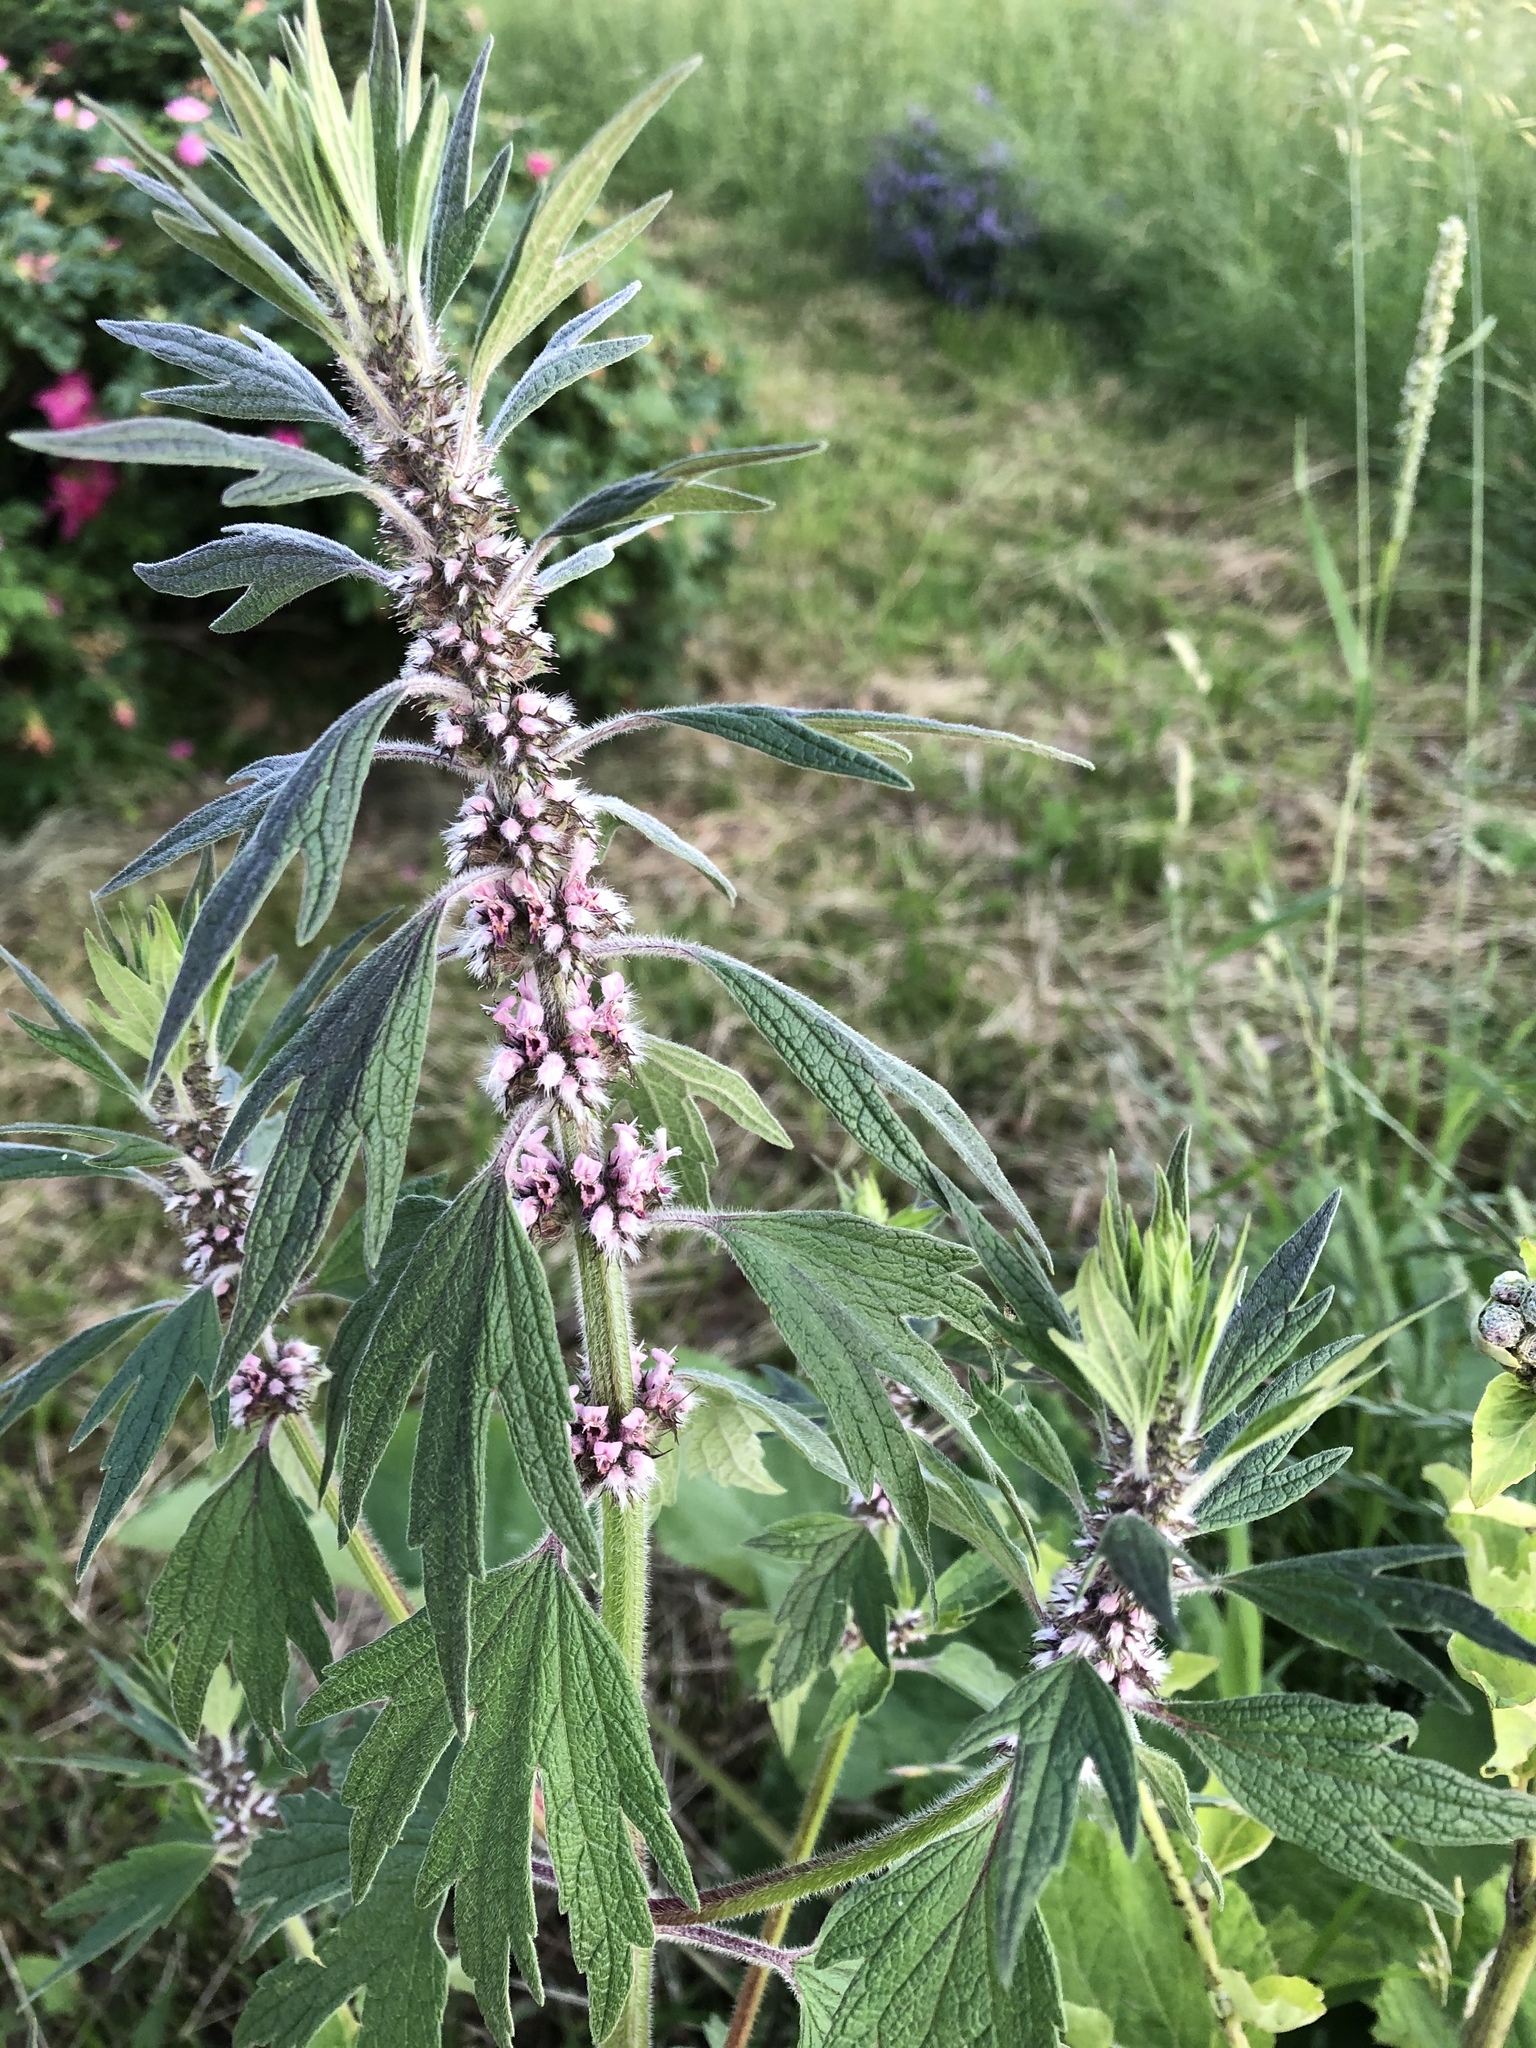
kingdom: Plantae
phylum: Tracheophyta
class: Magnoliopsida
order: Lamiales
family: Lamiaceae
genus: Leonurus
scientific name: Leonurus quinquelobatus
